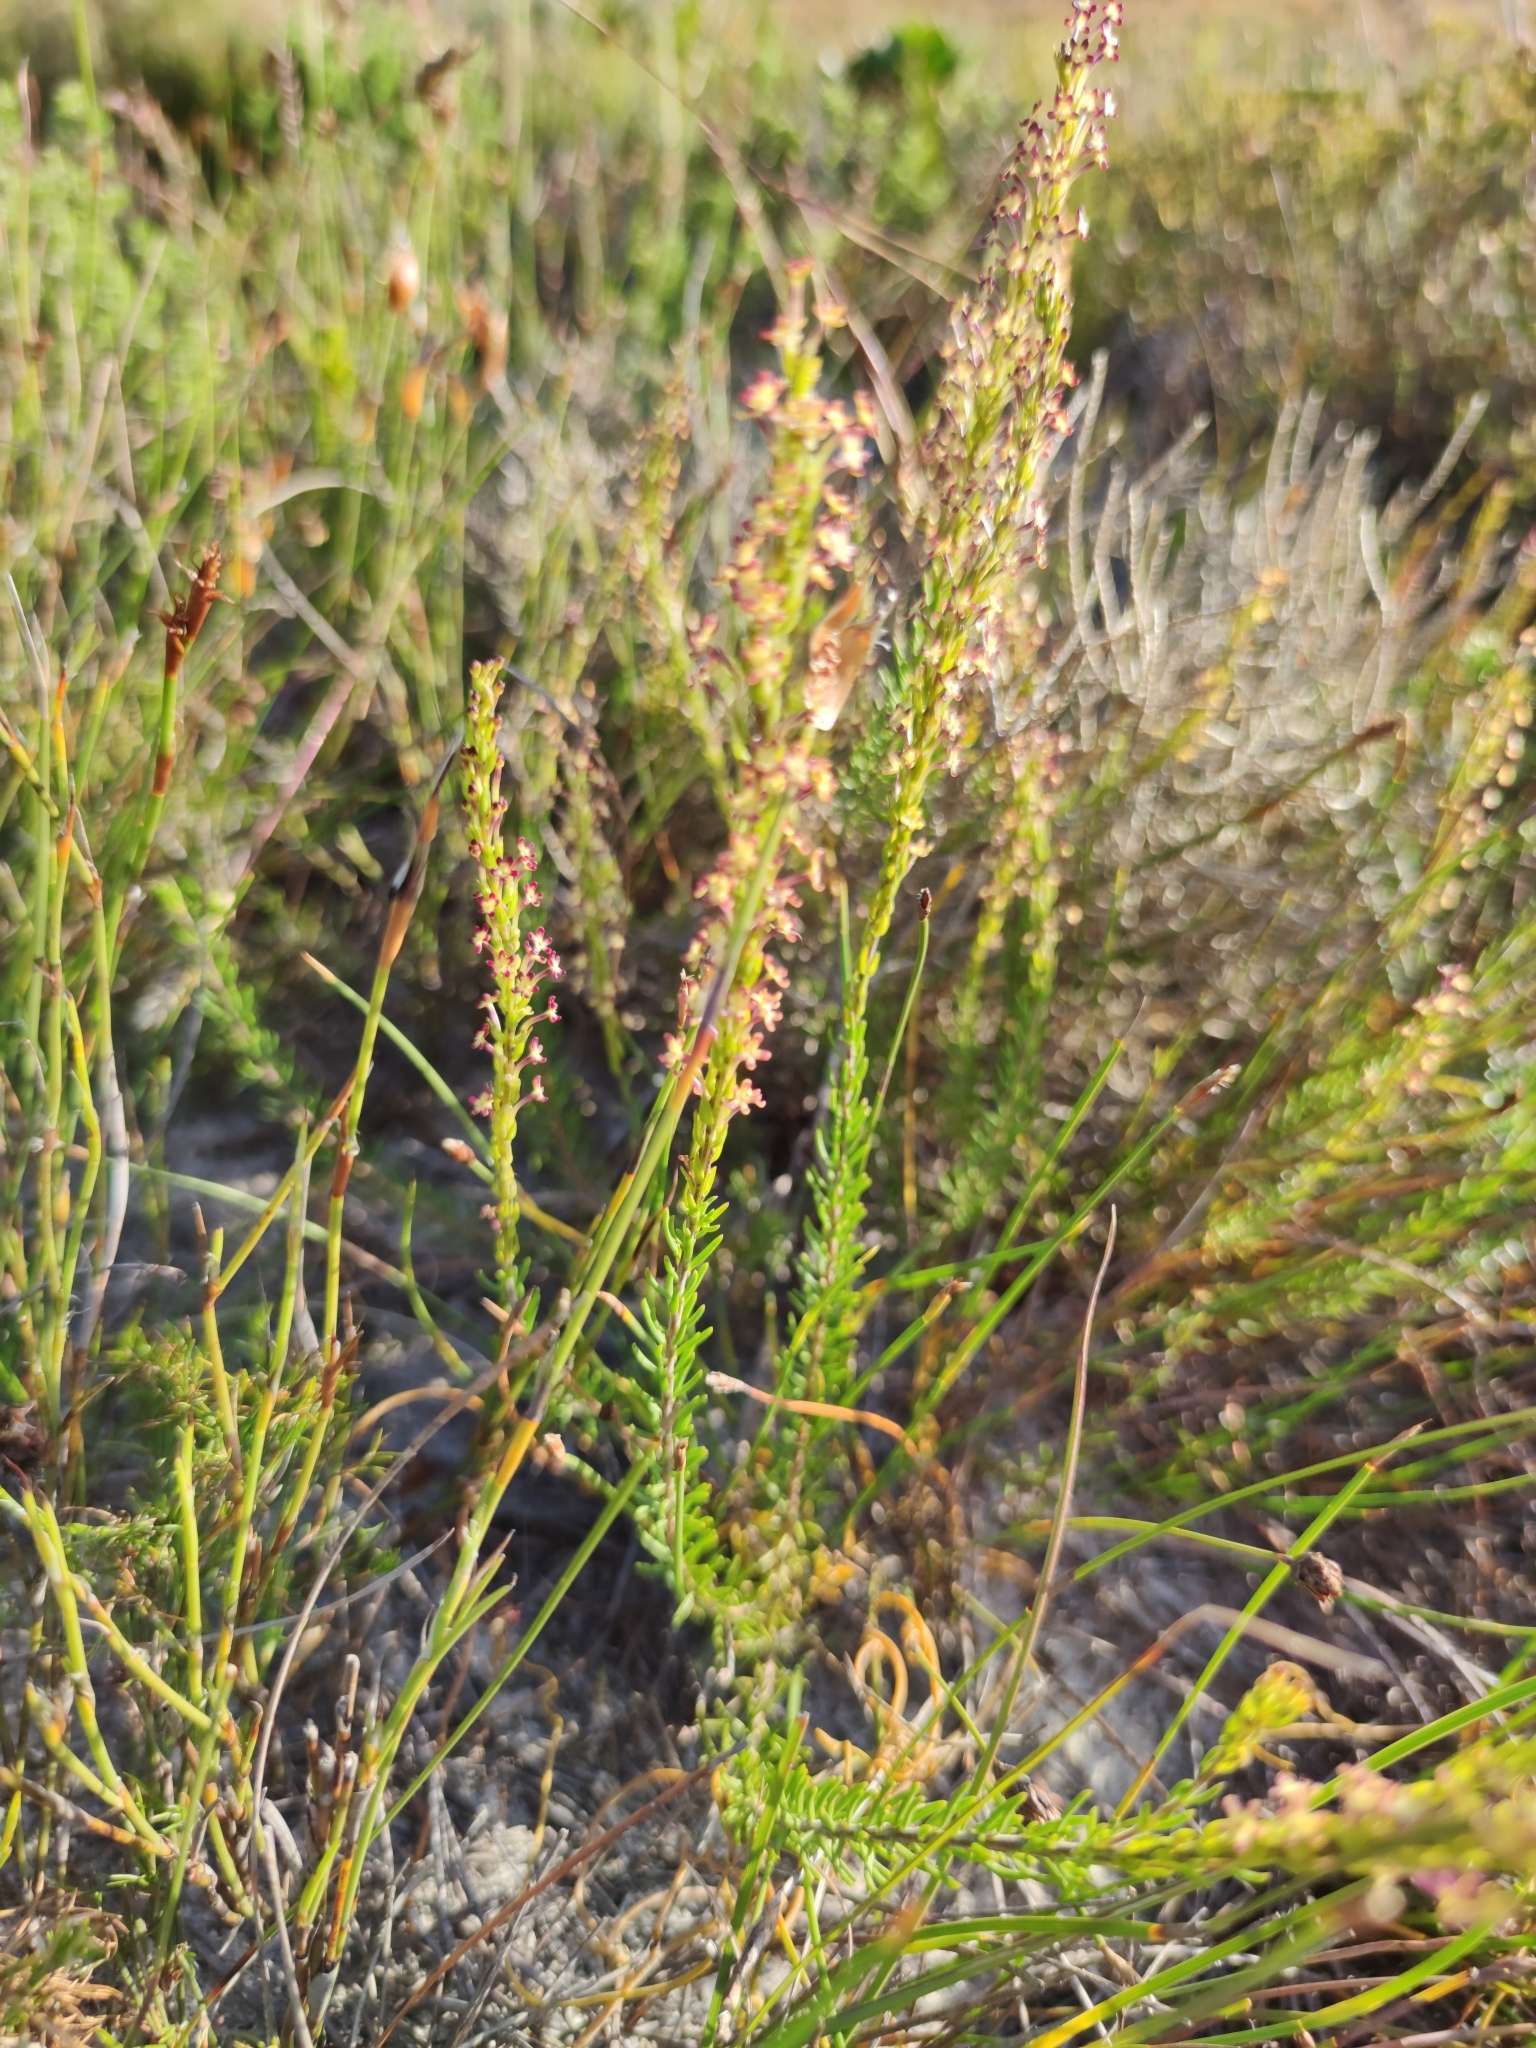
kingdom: Plantae
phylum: Tracheophyta
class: Magnoliopsida
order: Lamiales
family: Scrophulariaceae
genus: Microdon
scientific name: Microdon dubius
